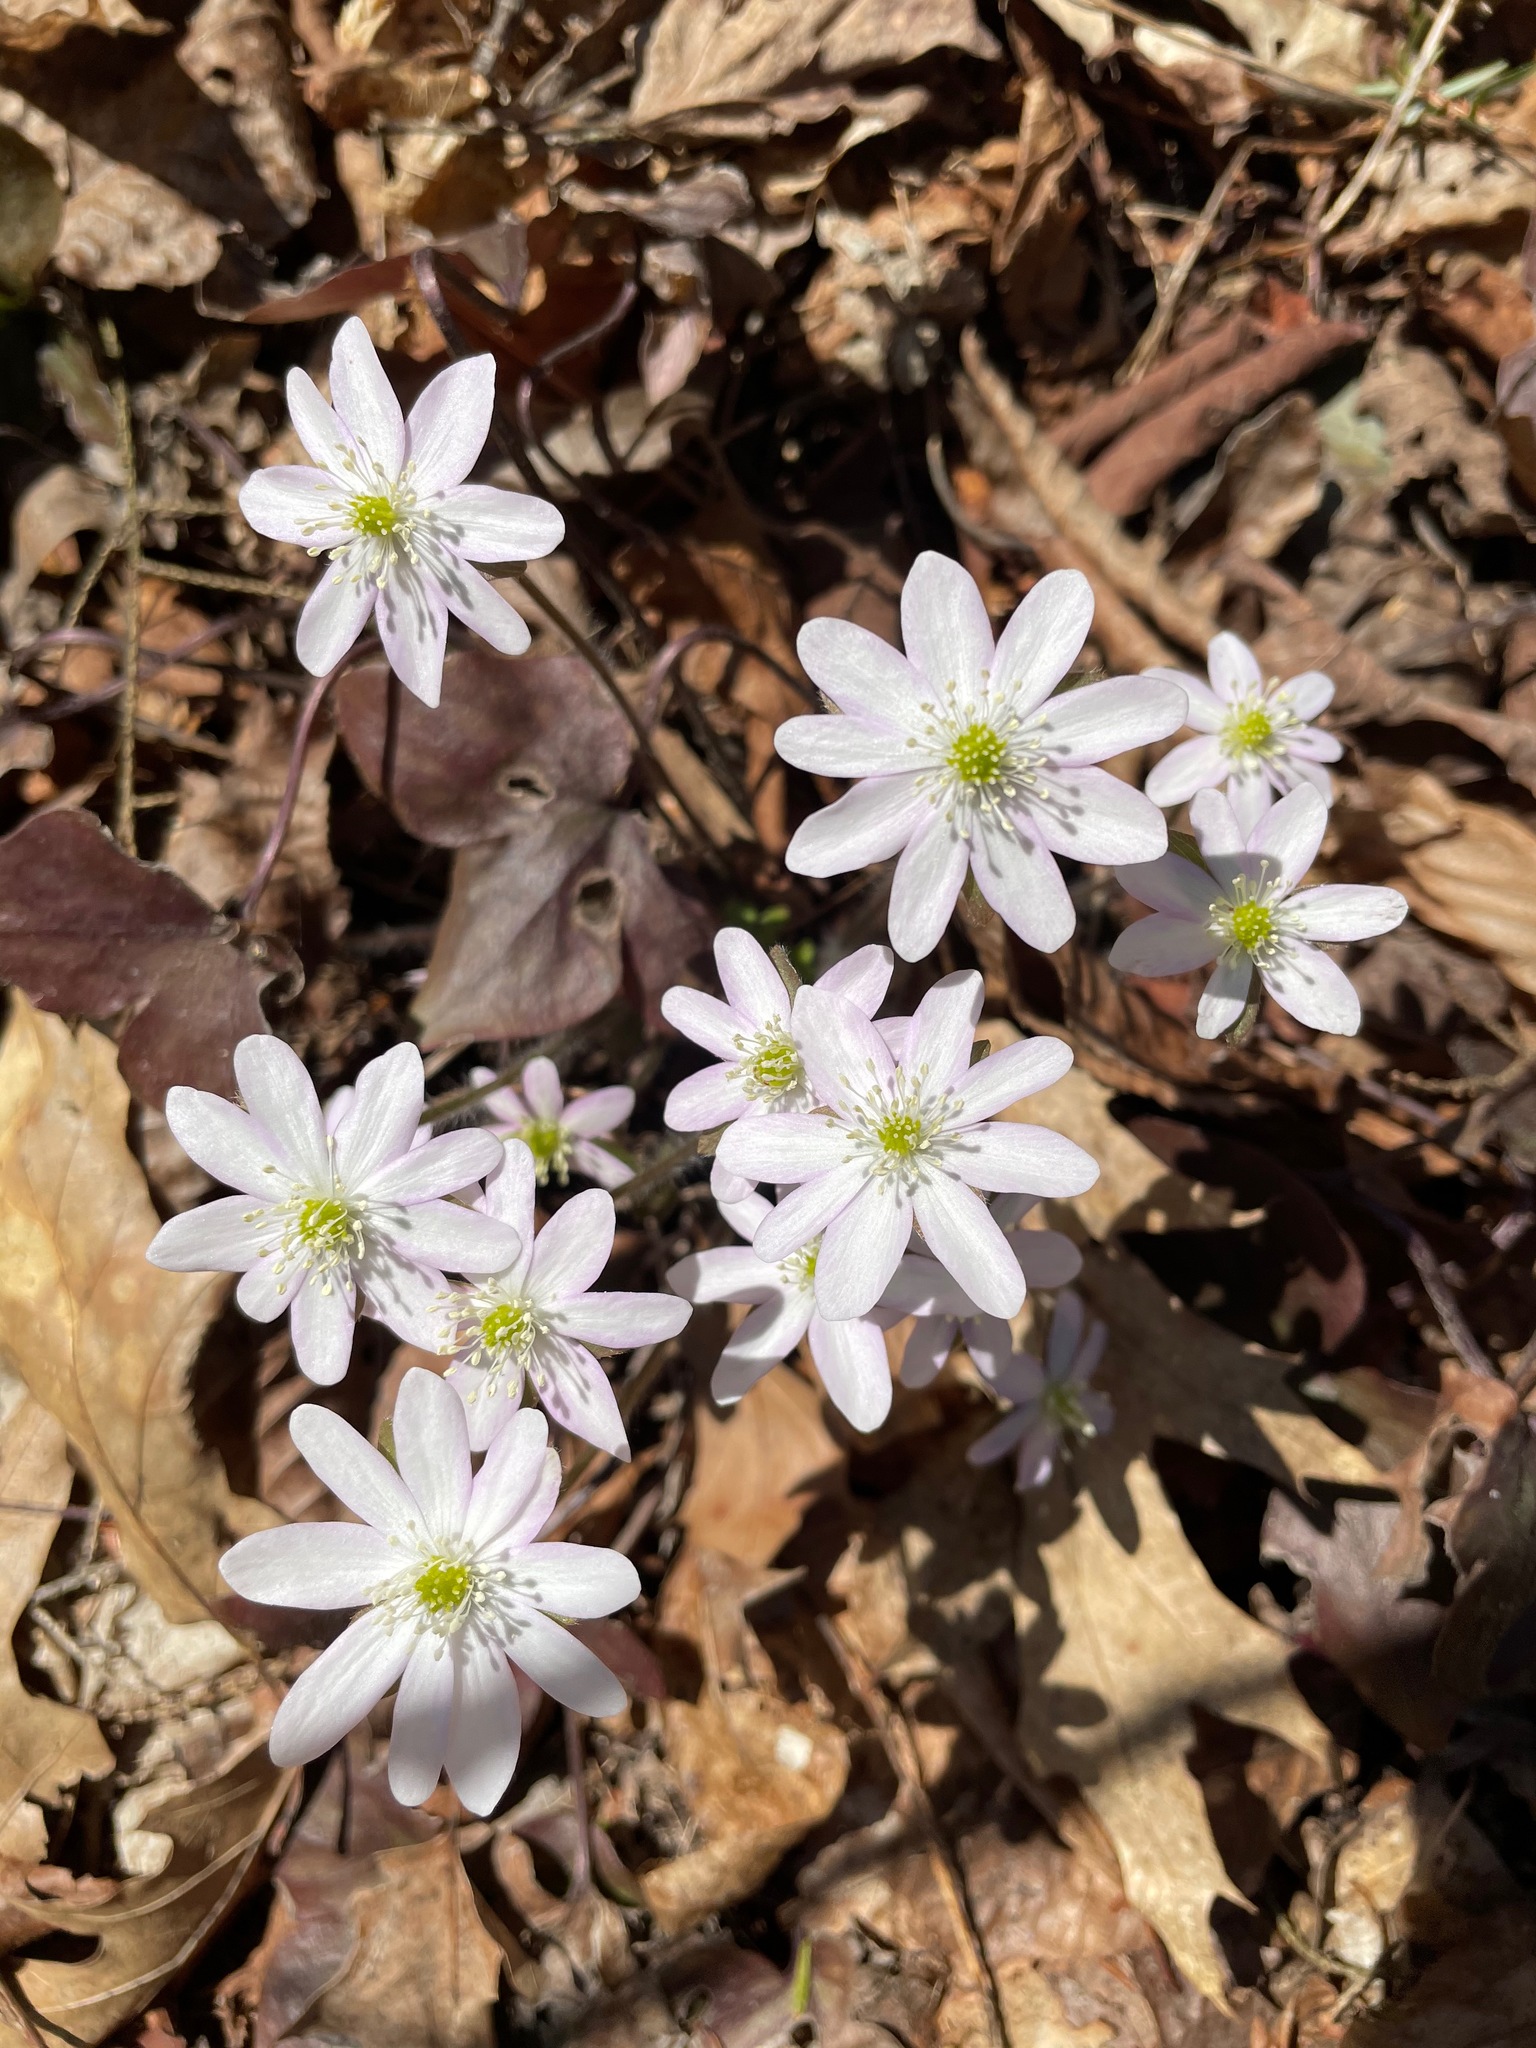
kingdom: Plantae
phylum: Tracheophyta
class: Magnoliopsida
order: Ranunculales
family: Ranunculaceae
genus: Hepatica
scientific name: Hepatica acutiloba
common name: Sharp-lobed hepatica
